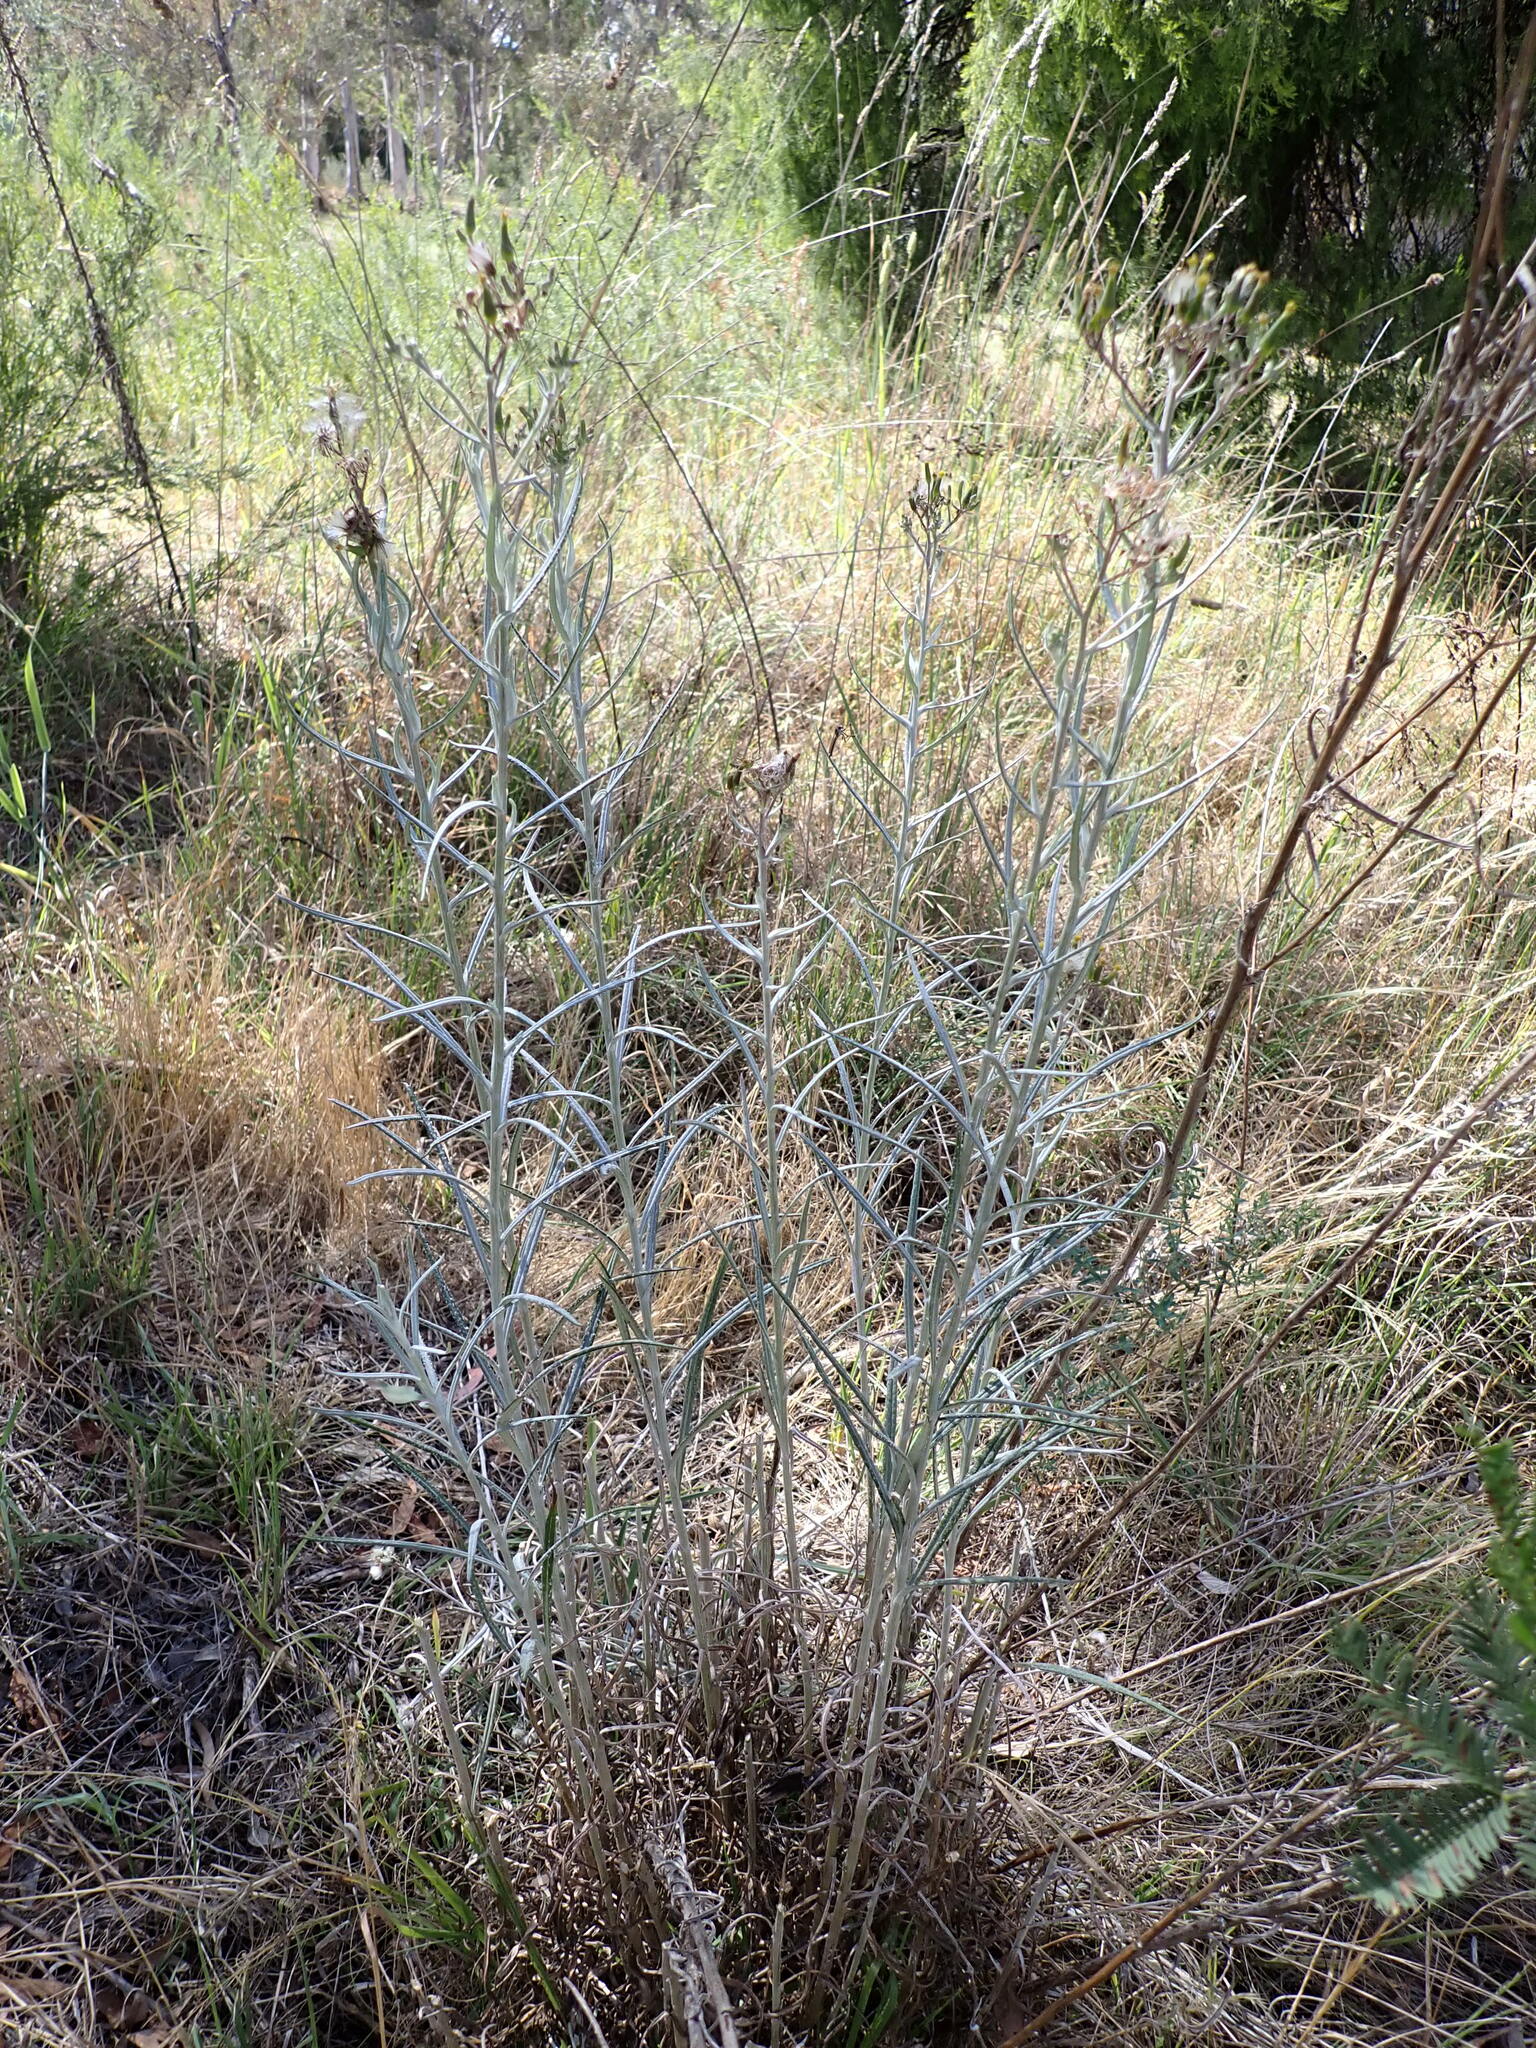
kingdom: Plantae
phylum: Tracheophyta
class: Magnoliopsida
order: Asterales
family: Asteraceae
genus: Senecio
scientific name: Senecio quadridentatus
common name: Cotton fireweed
